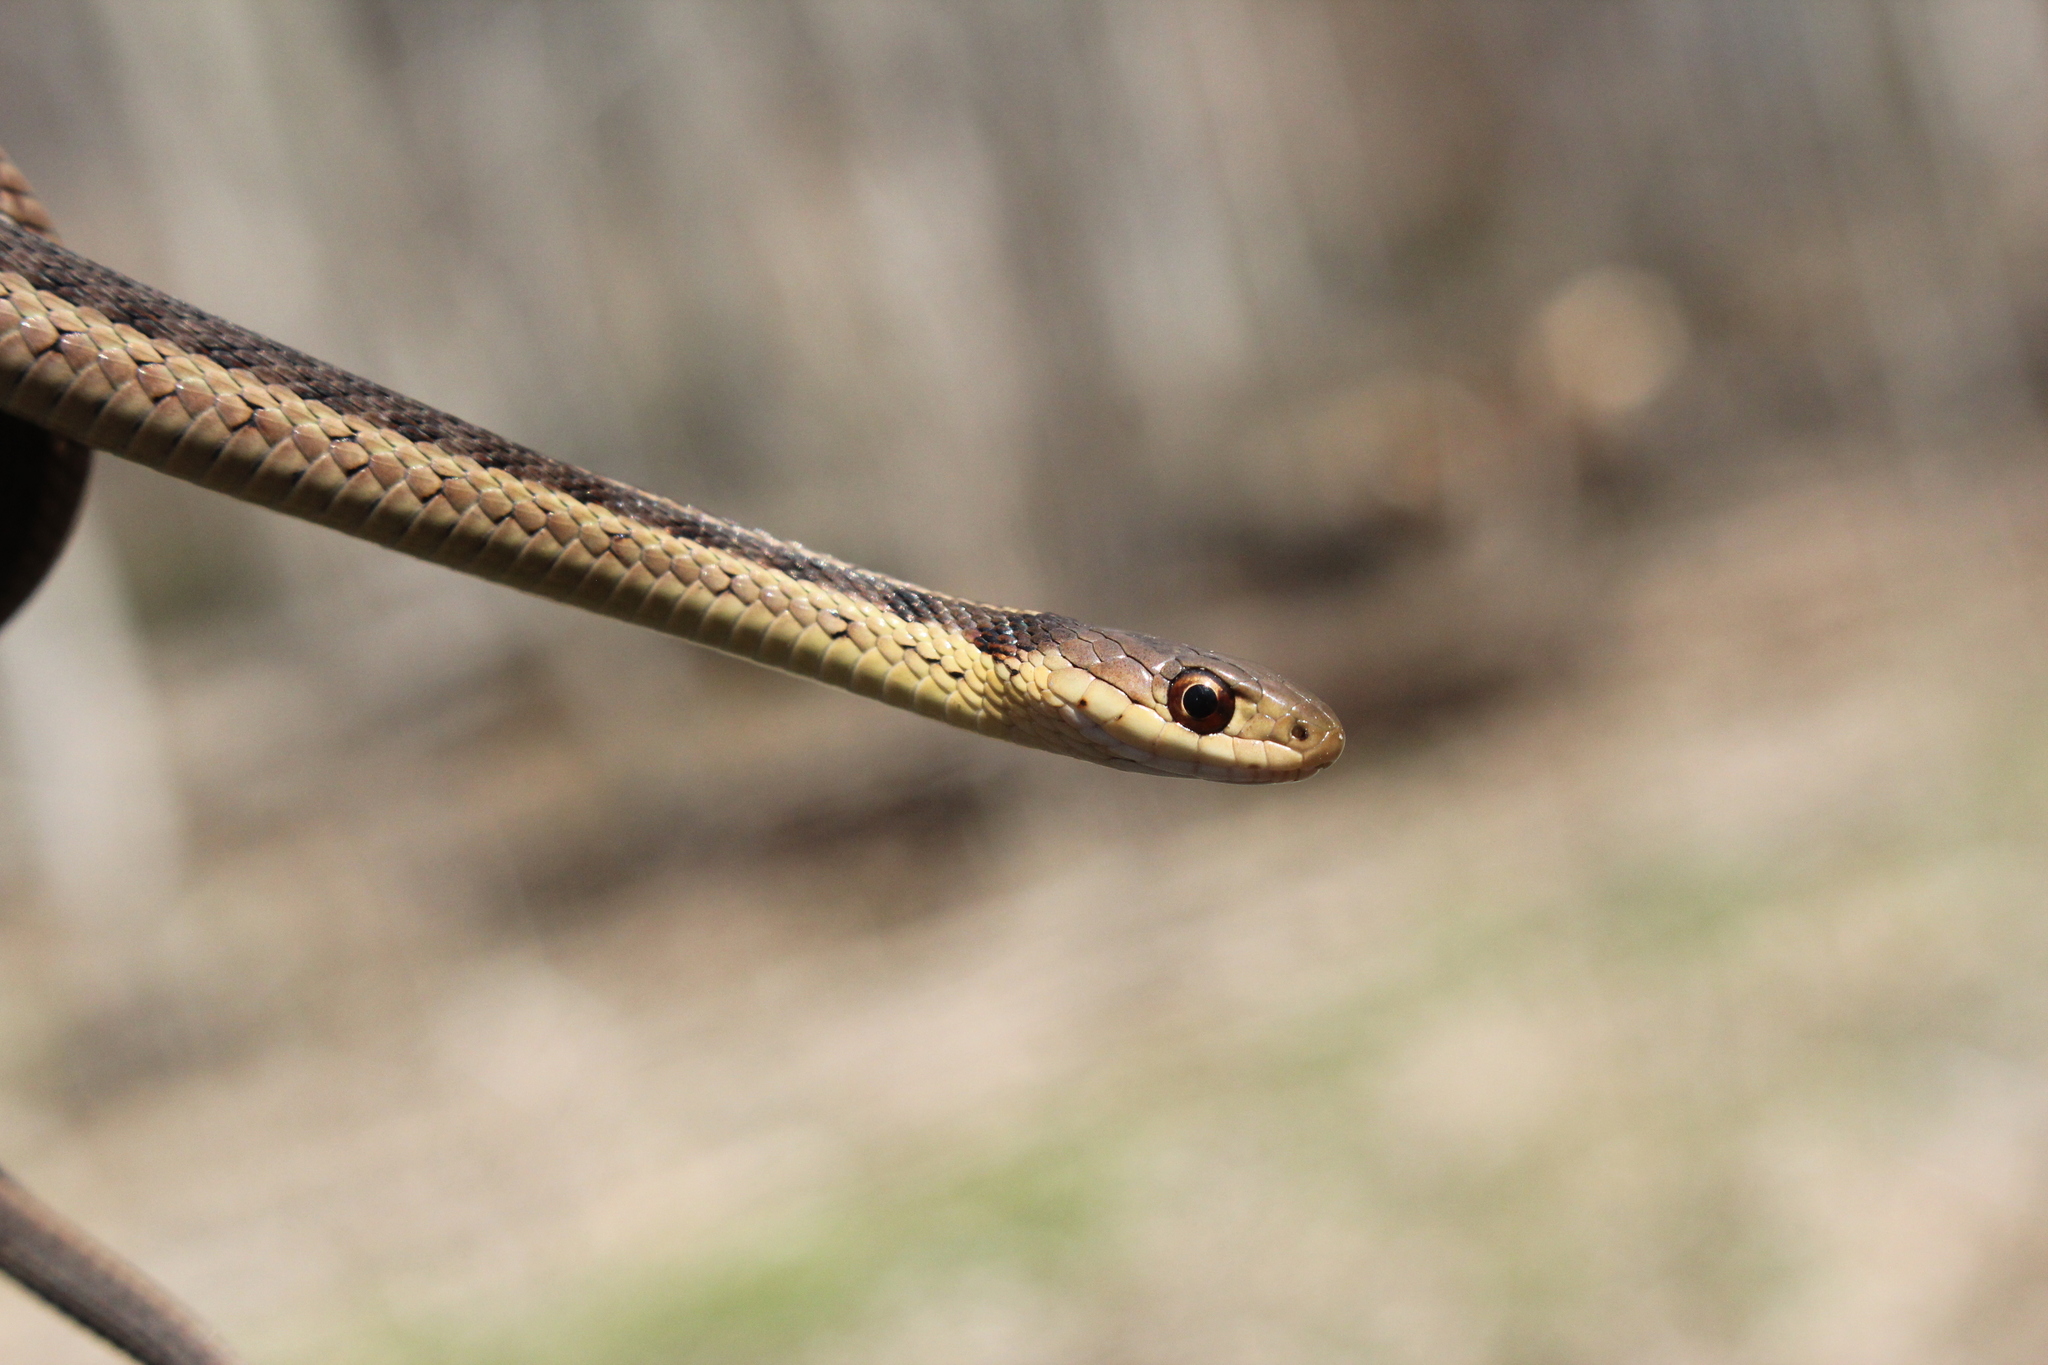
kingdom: Animalia
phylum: Chordata
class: Squamata
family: Colubridae
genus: Thamnophis
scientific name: Thamnophis sirtalis
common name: Common garter snake
